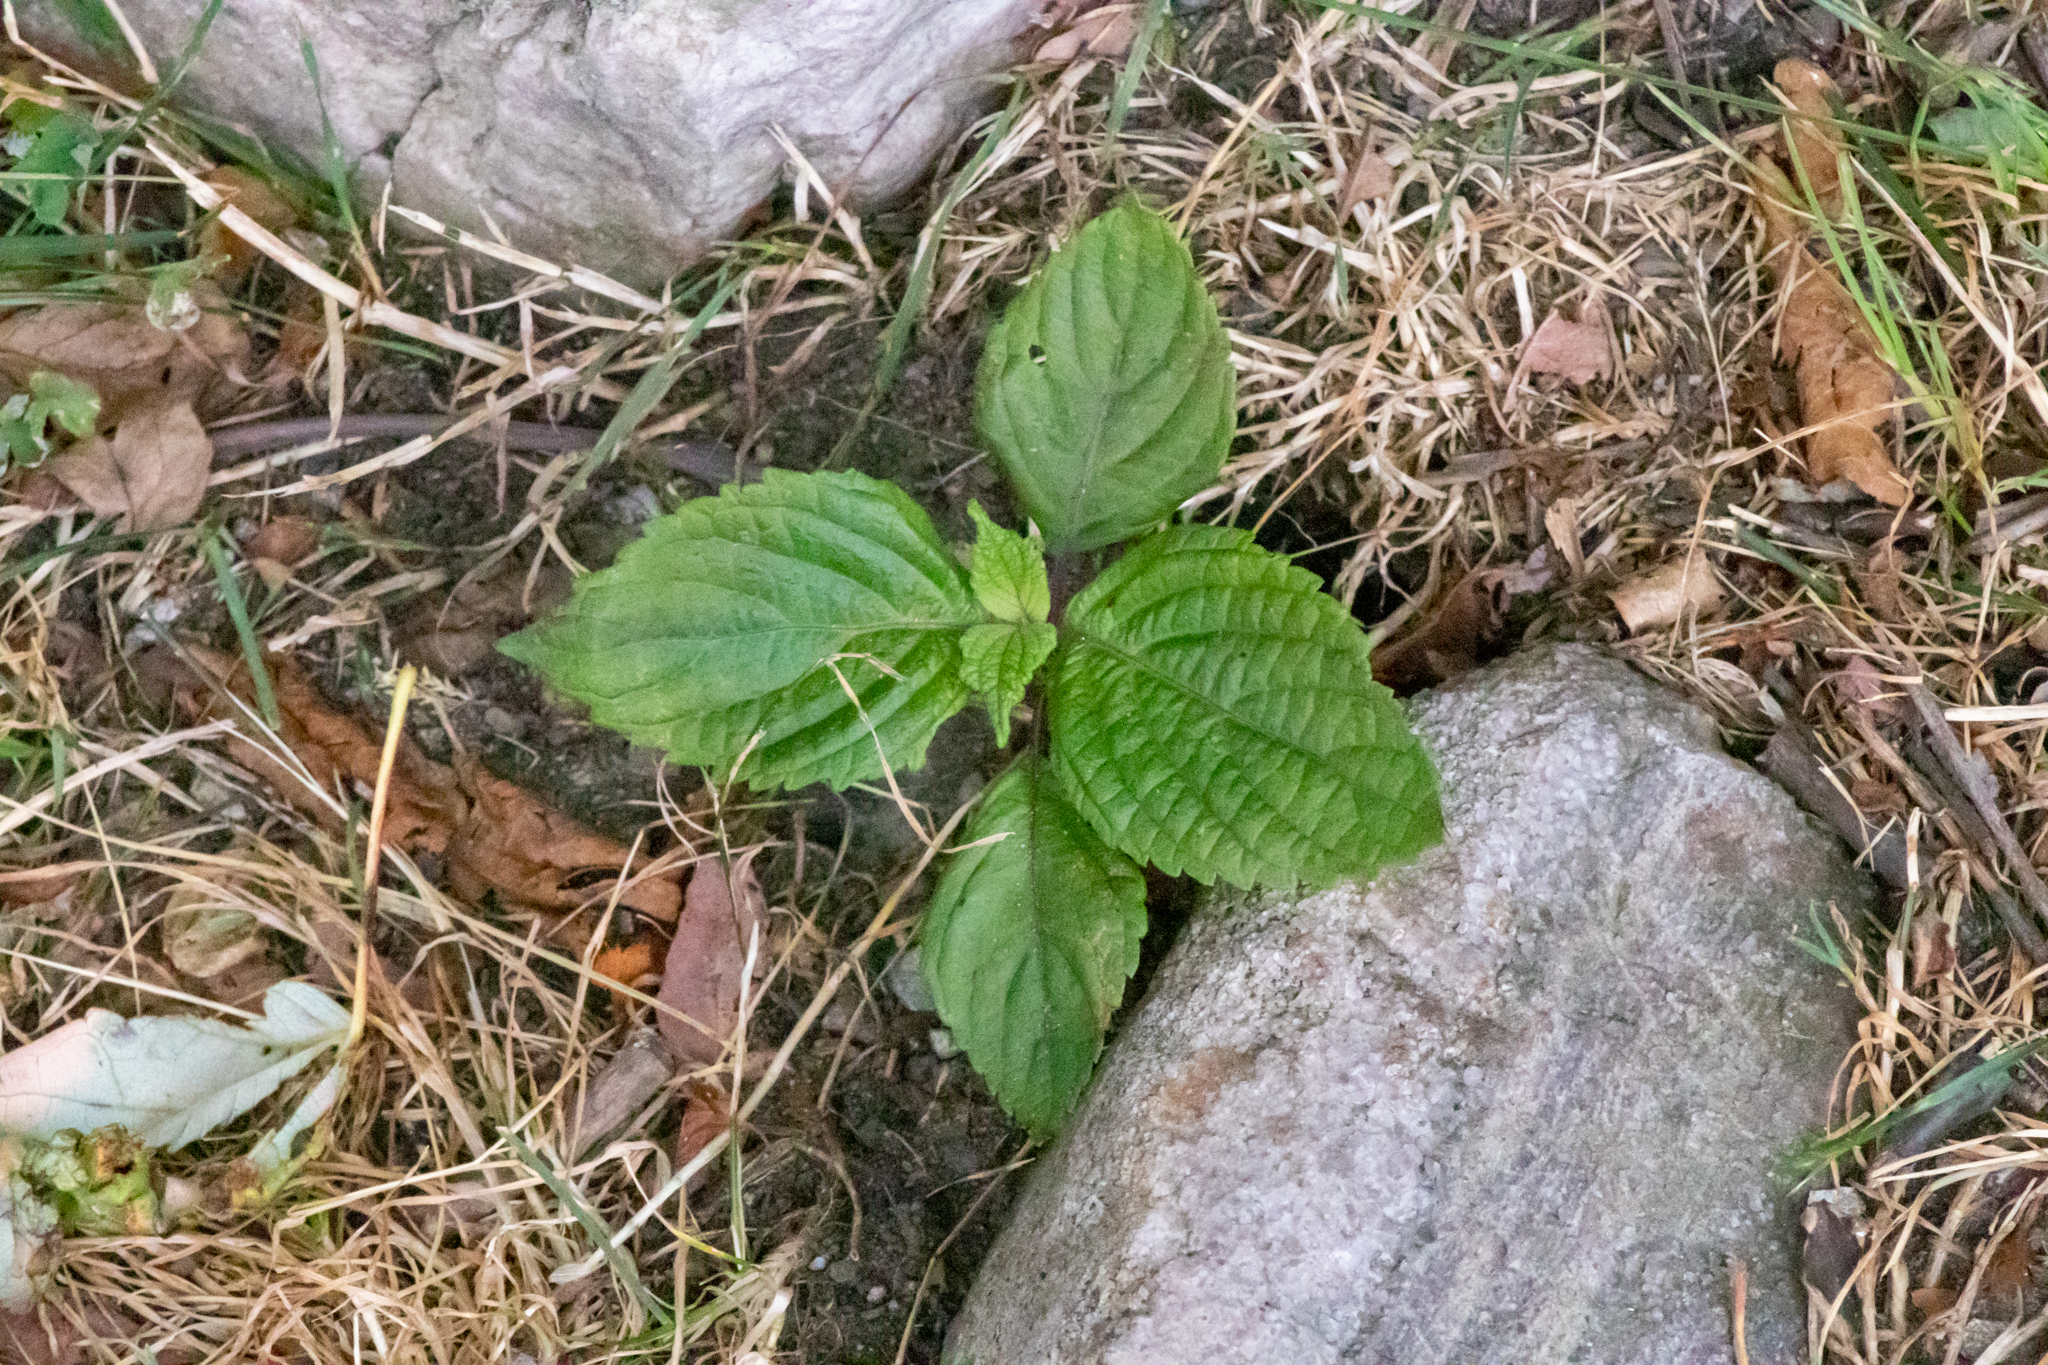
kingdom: Plantae
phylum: Tracheophyta
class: Magnoliopsida
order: Lamiales
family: Lamiaceae
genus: Perilla
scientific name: Perilla frutescens
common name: Perilla
